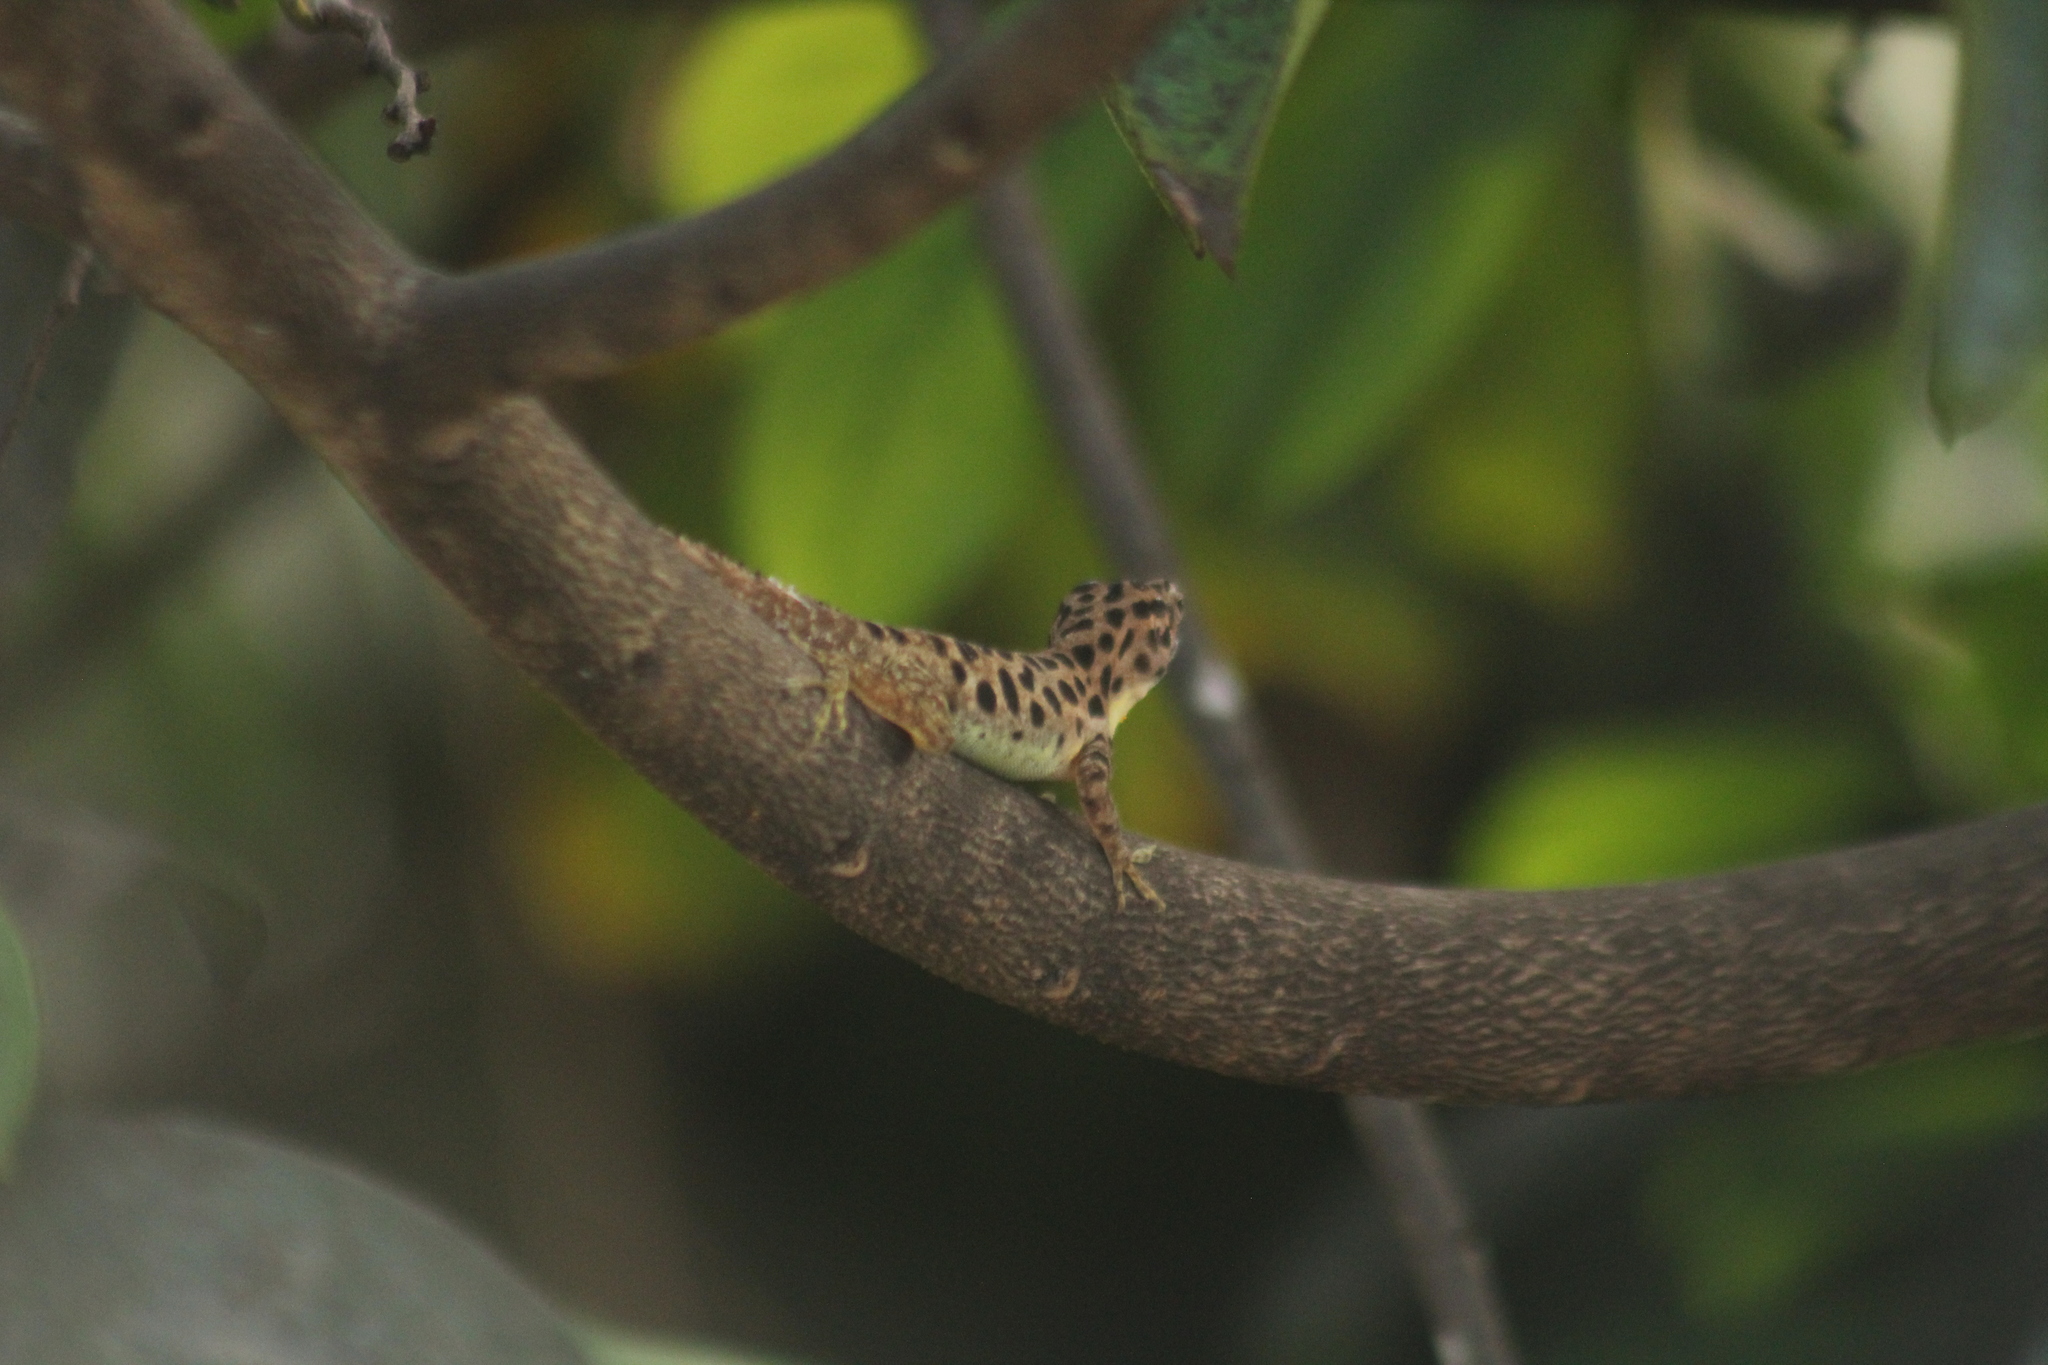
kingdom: Animalia
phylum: Chordata
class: Squamata
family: Dactyloidae
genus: Anolis
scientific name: Anolis sabanus
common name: Saba anole
